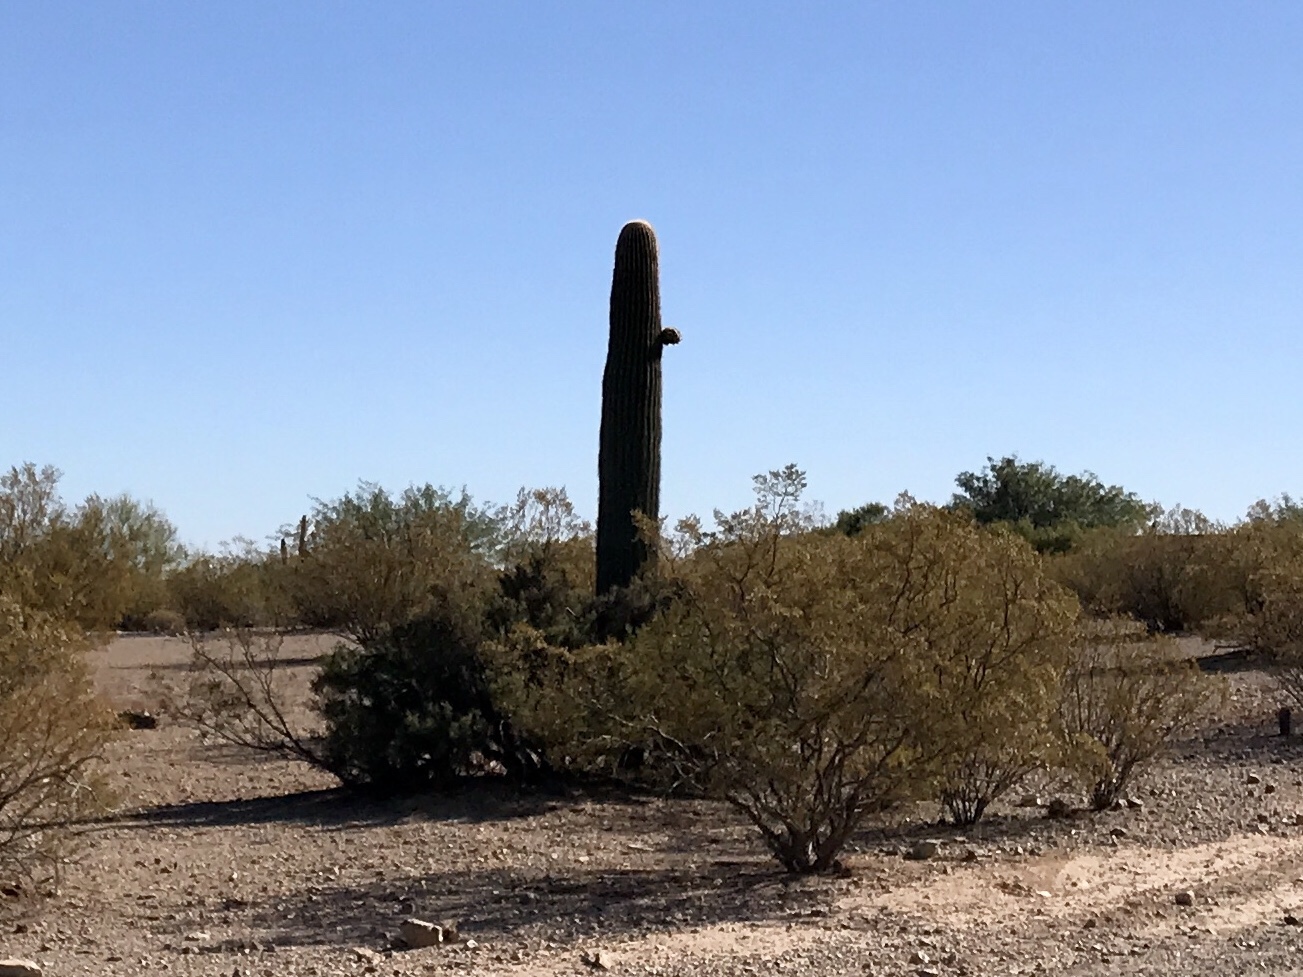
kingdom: Plantae
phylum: Tracheophyta
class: Magnoliopsida
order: Caryophyllales
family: Cactaceae
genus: Carnegiea
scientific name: Carnegiea gigantea
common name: Saguaro
